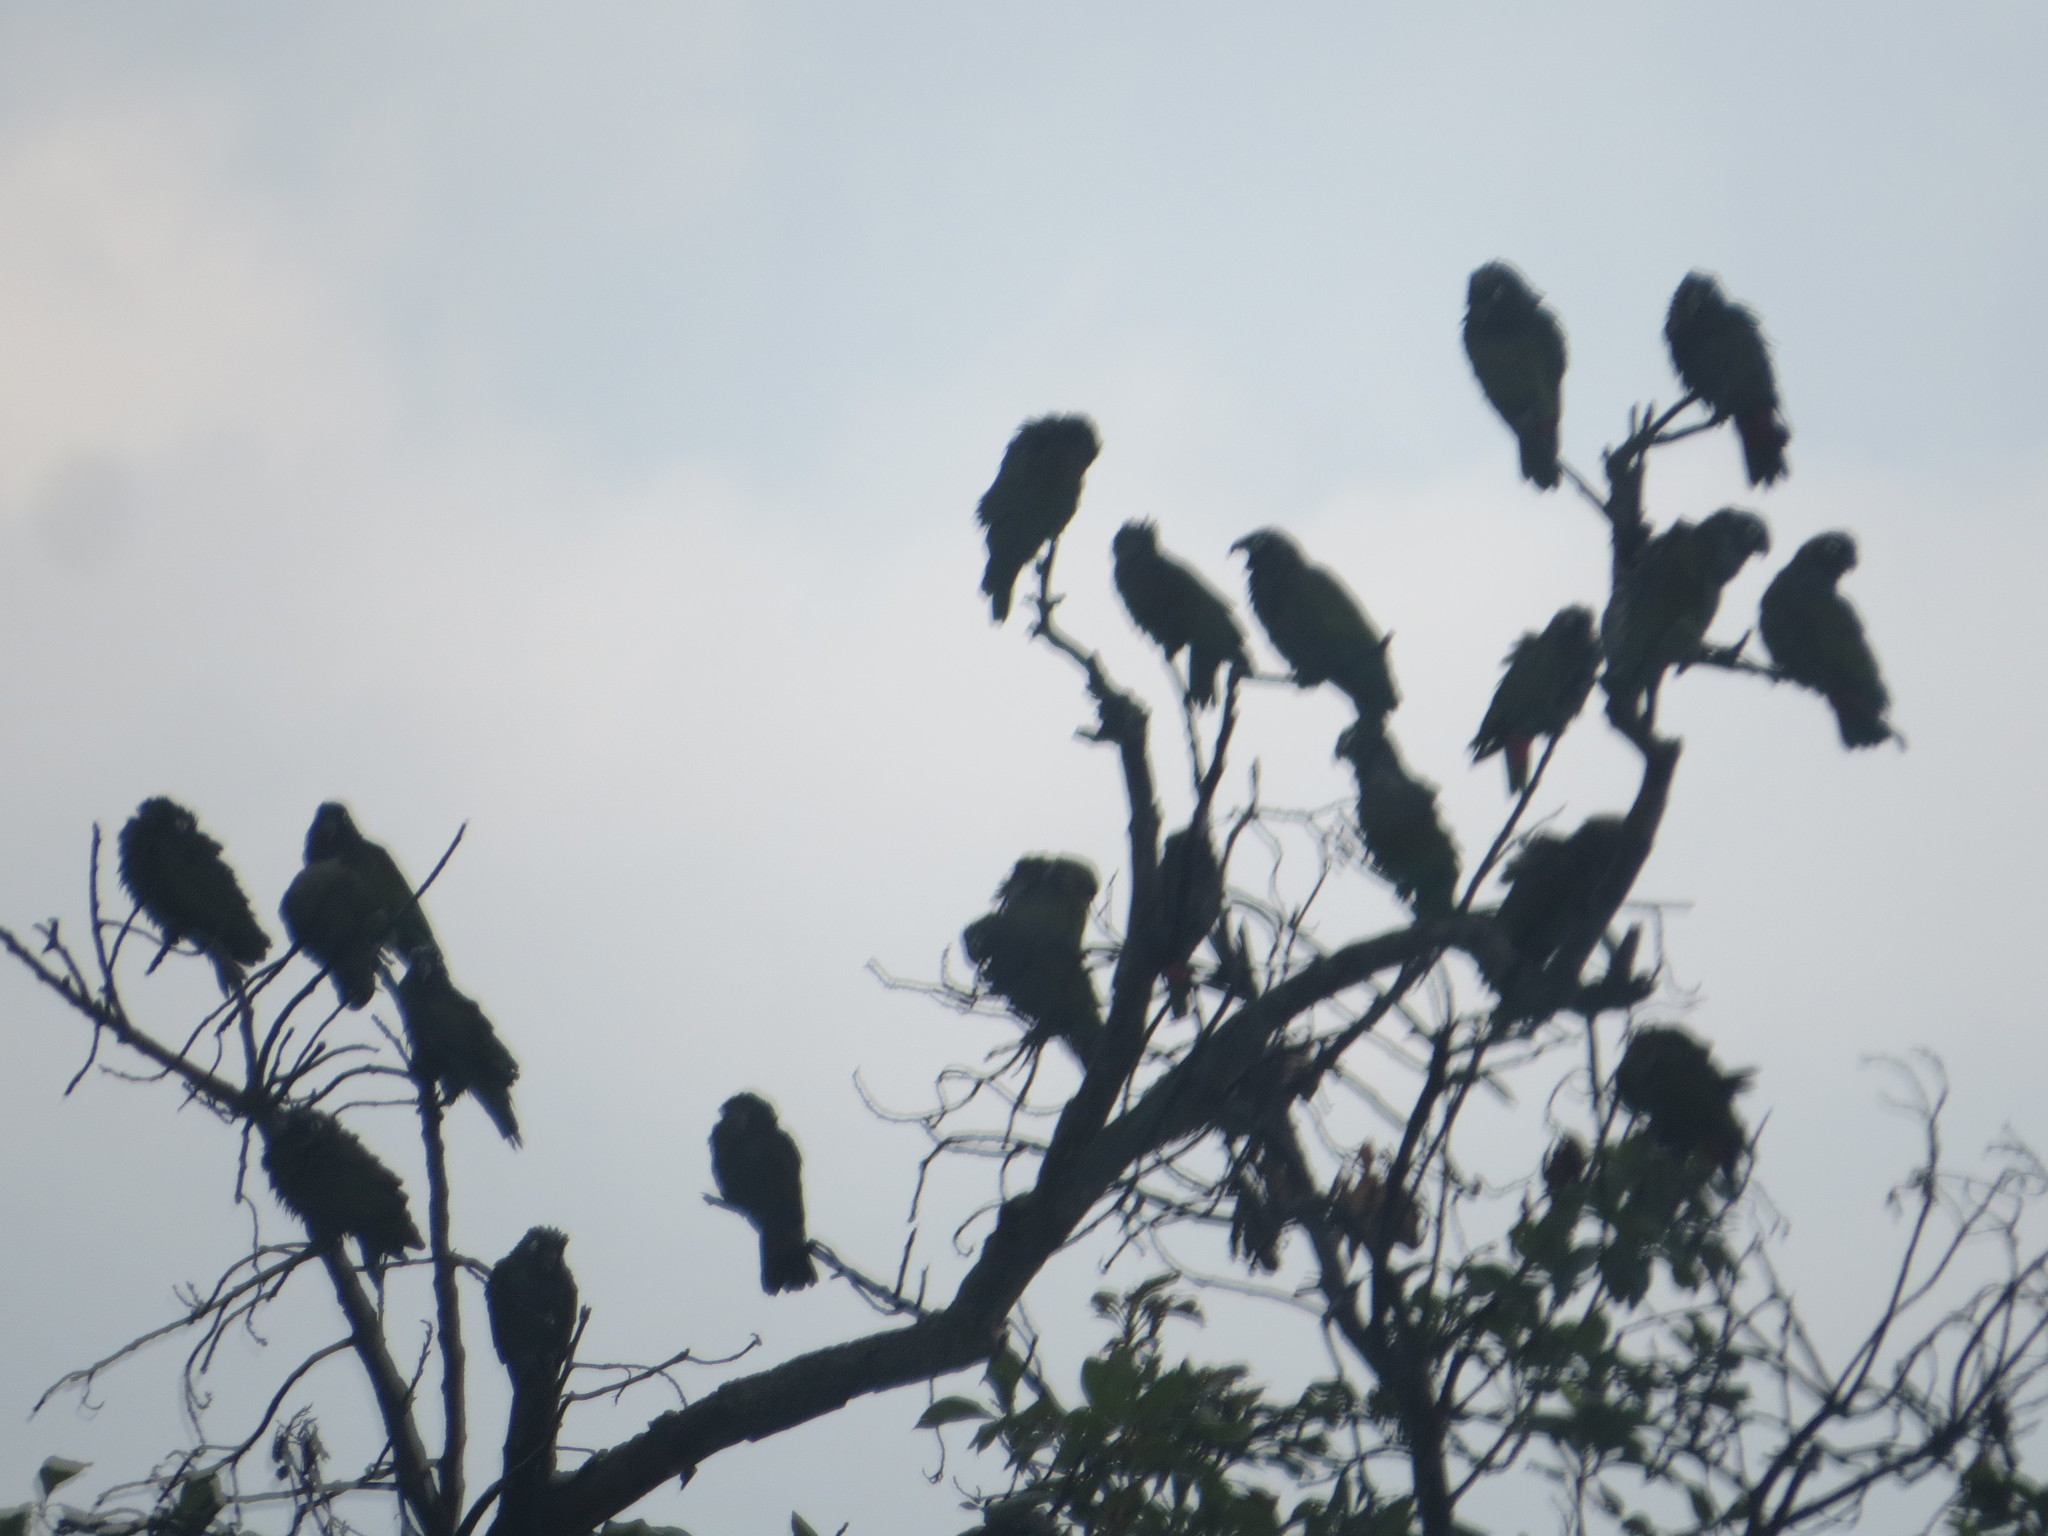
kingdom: Animalia
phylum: Chordata
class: Aves
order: Psittaciformes
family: Psittacidae
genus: Pionus
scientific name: Pionus maximiliani
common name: Scaly-headed parrot
